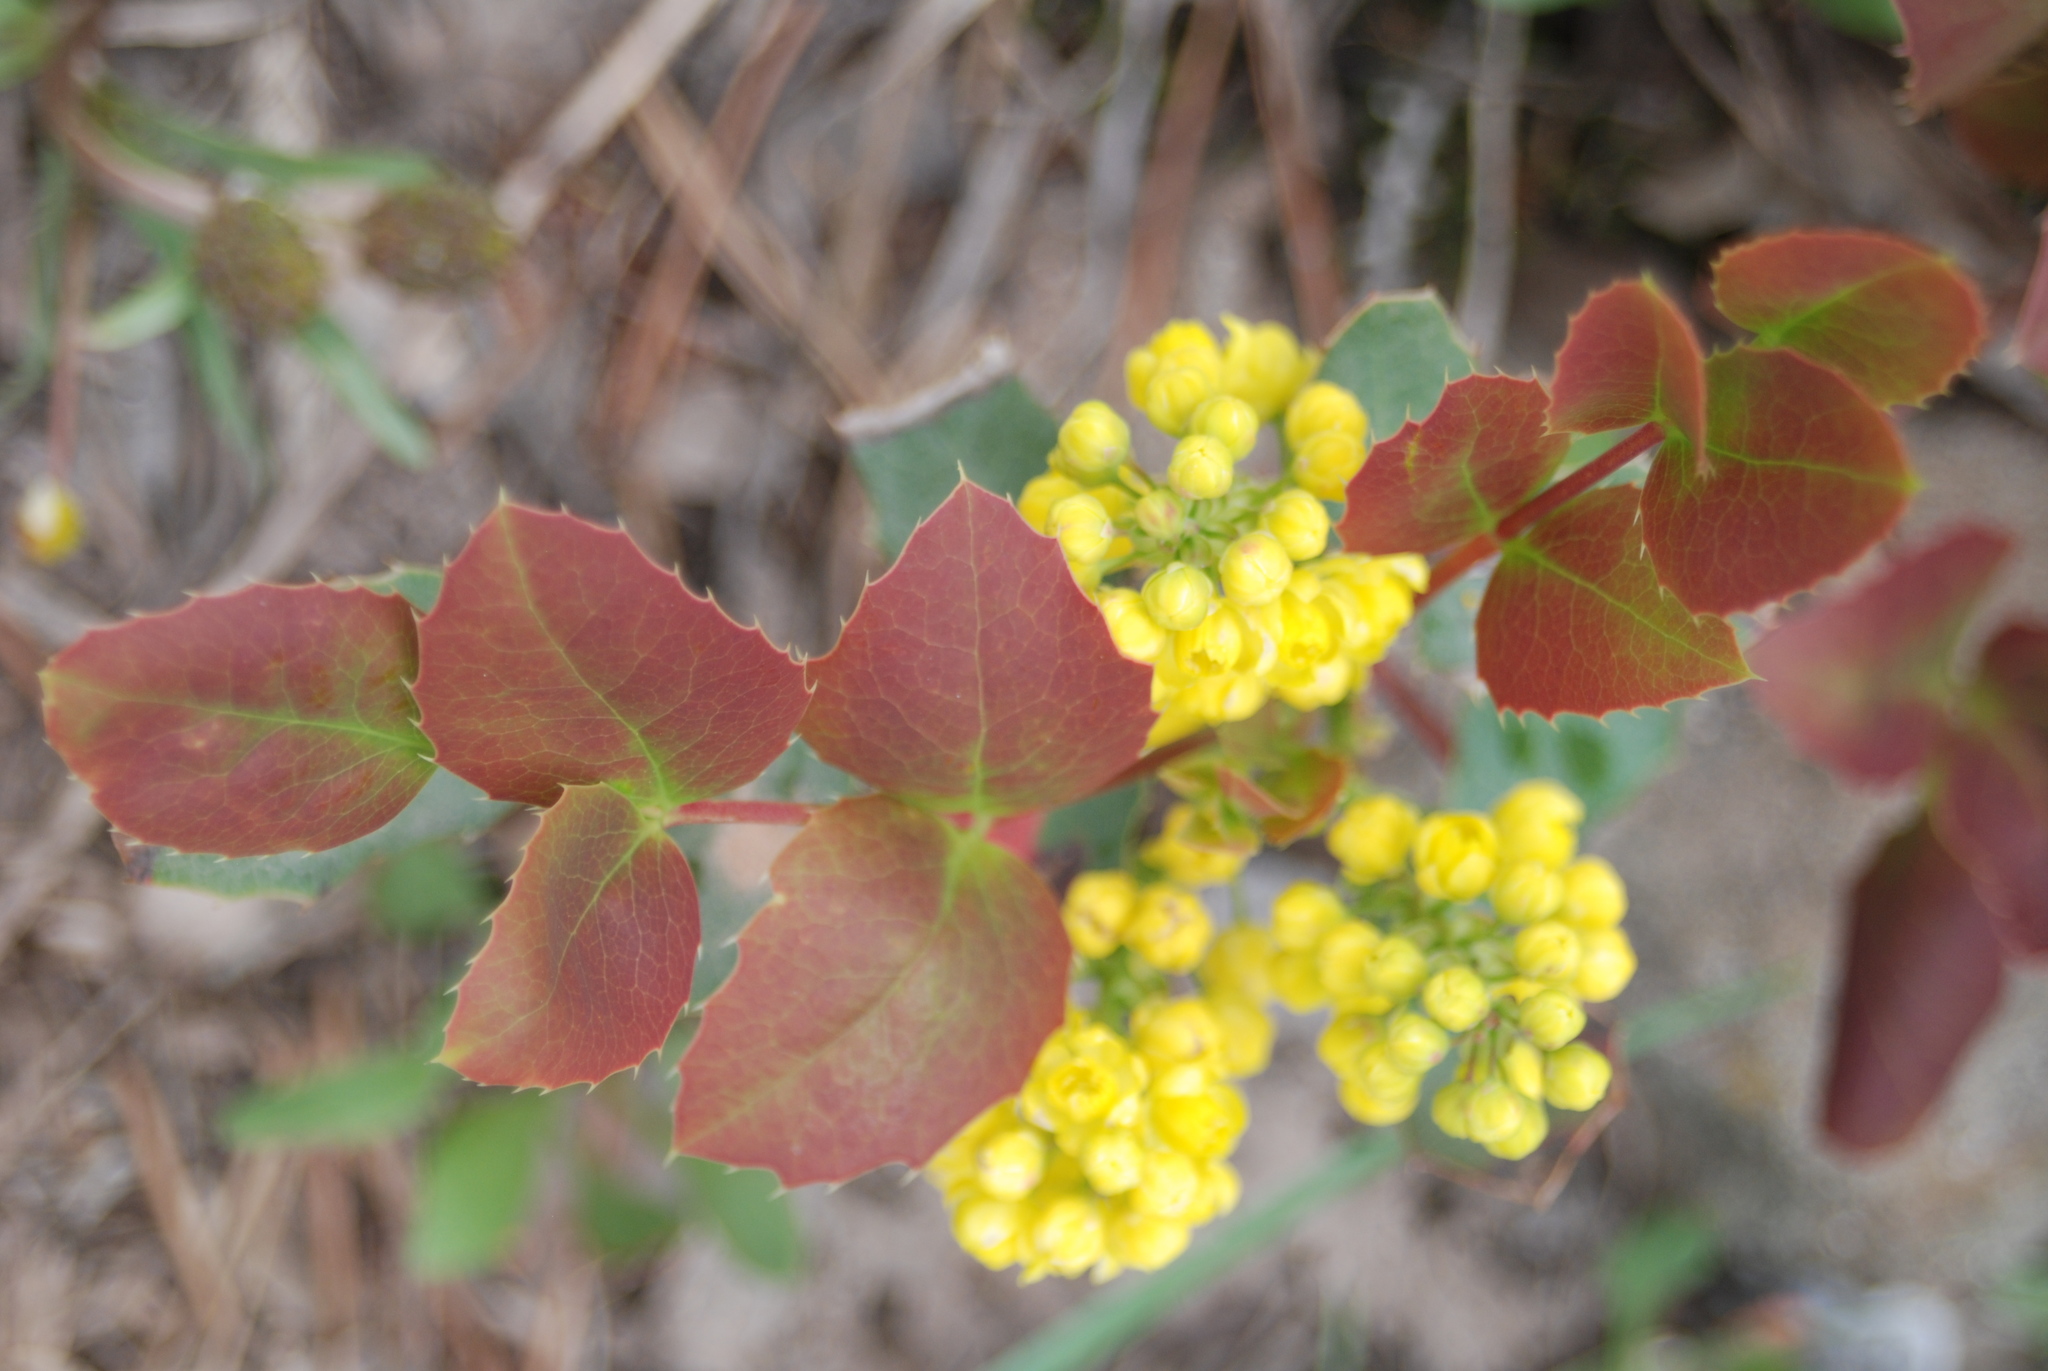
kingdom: Plantae
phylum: Tracheophyta
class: Magnoliopsida
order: Ranunculales
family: Berberidaceae
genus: Mahonia
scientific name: Mahonia repens
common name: Creeping oregon-grape
